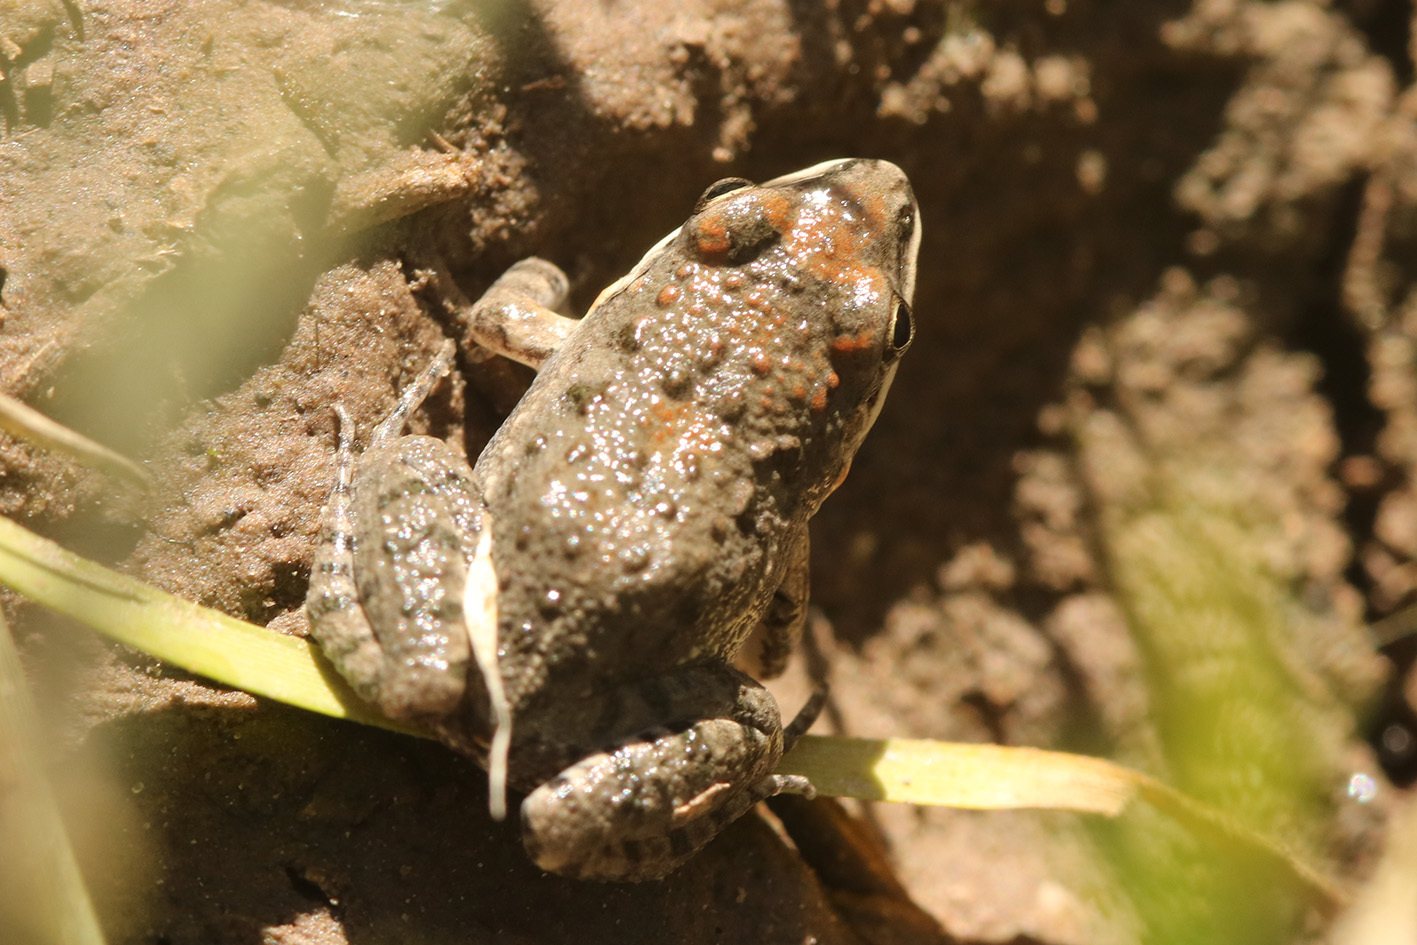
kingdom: Animalia
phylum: Chordata
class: Amphibia
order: Anura
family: Leptodactylidae
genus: Leptodactylus
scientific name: Leptodactylus latinasus
